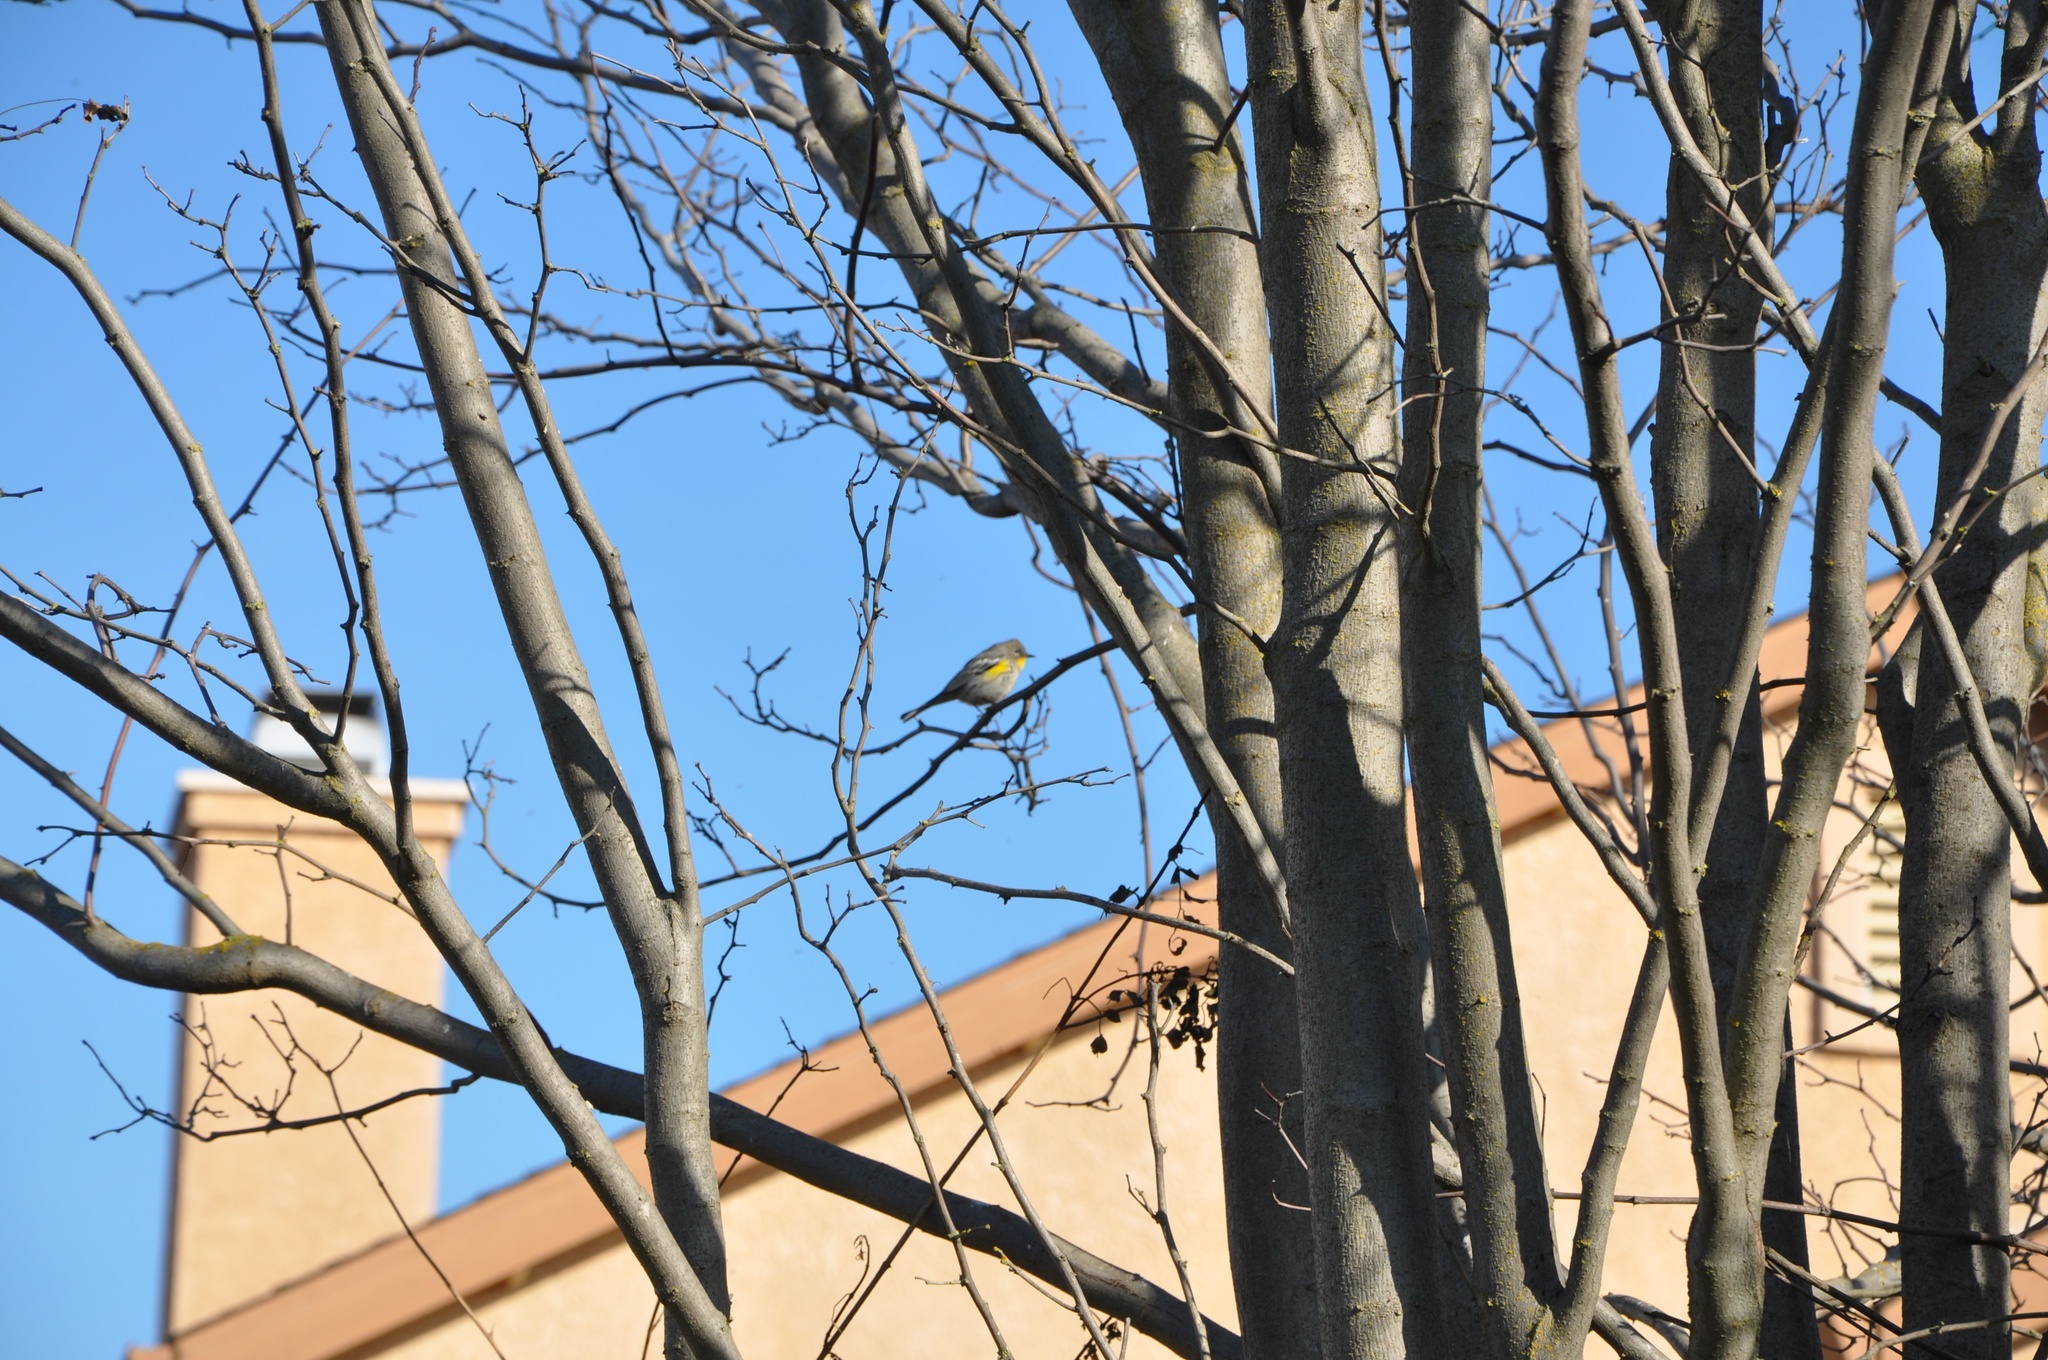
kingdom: Animalia
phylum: Chordata
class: Aves
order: Passeriformes
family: Parulidae
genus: Setophaga
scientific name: Setophaga coronata
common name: Myrtle warbler
